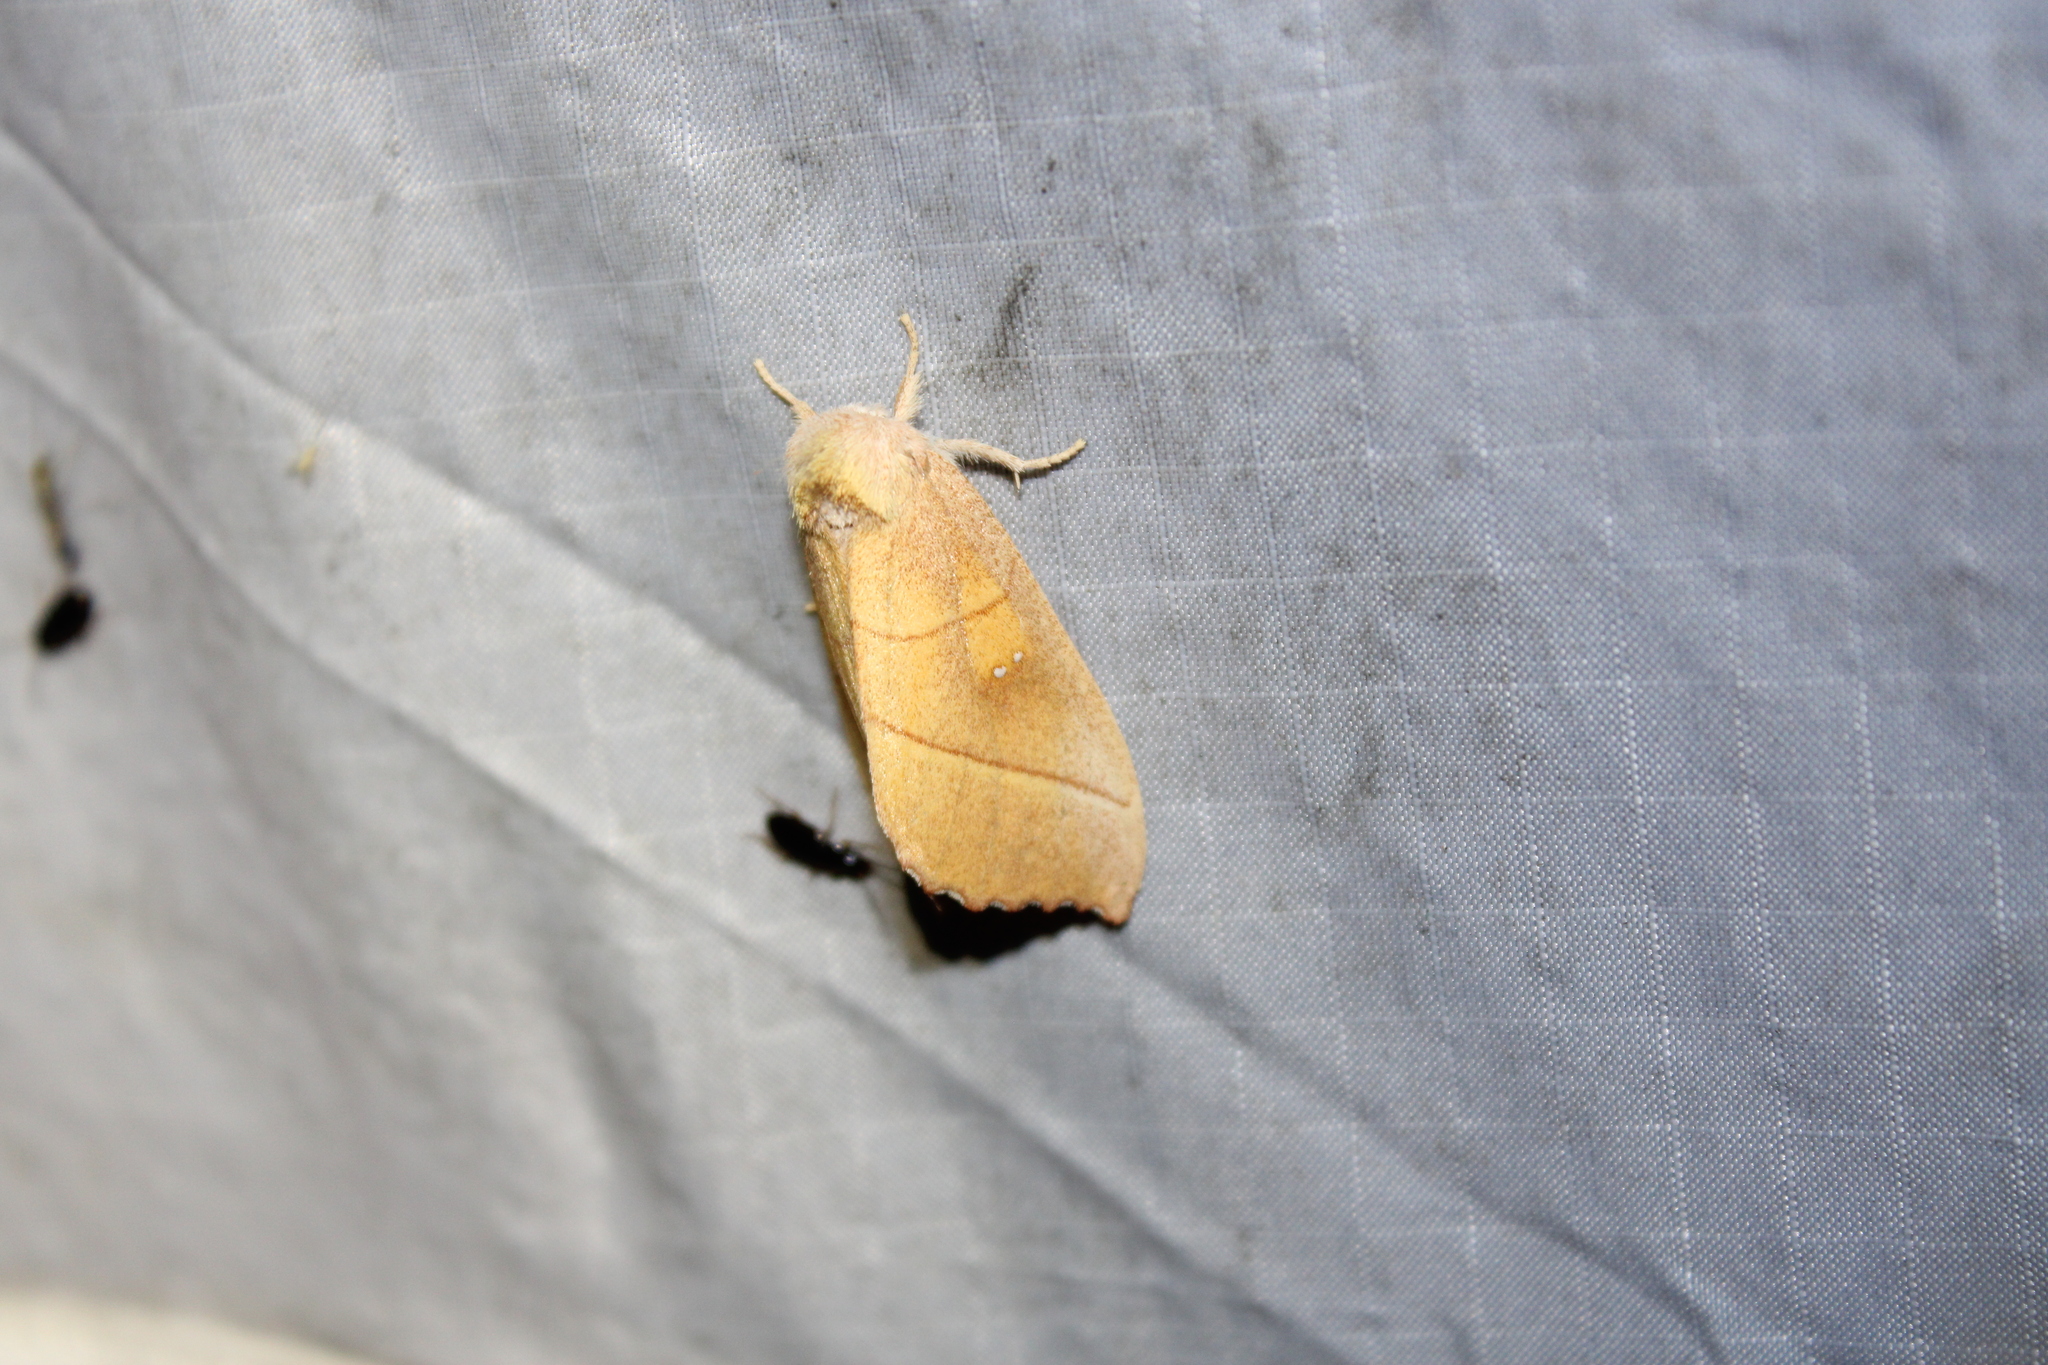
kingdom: Animalia
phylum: Arthropoda
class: Insecta
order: Lepidoptera
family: Notodontidae
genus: Nadata
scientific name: Nadata gibbosa
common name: White-dotted prominent
